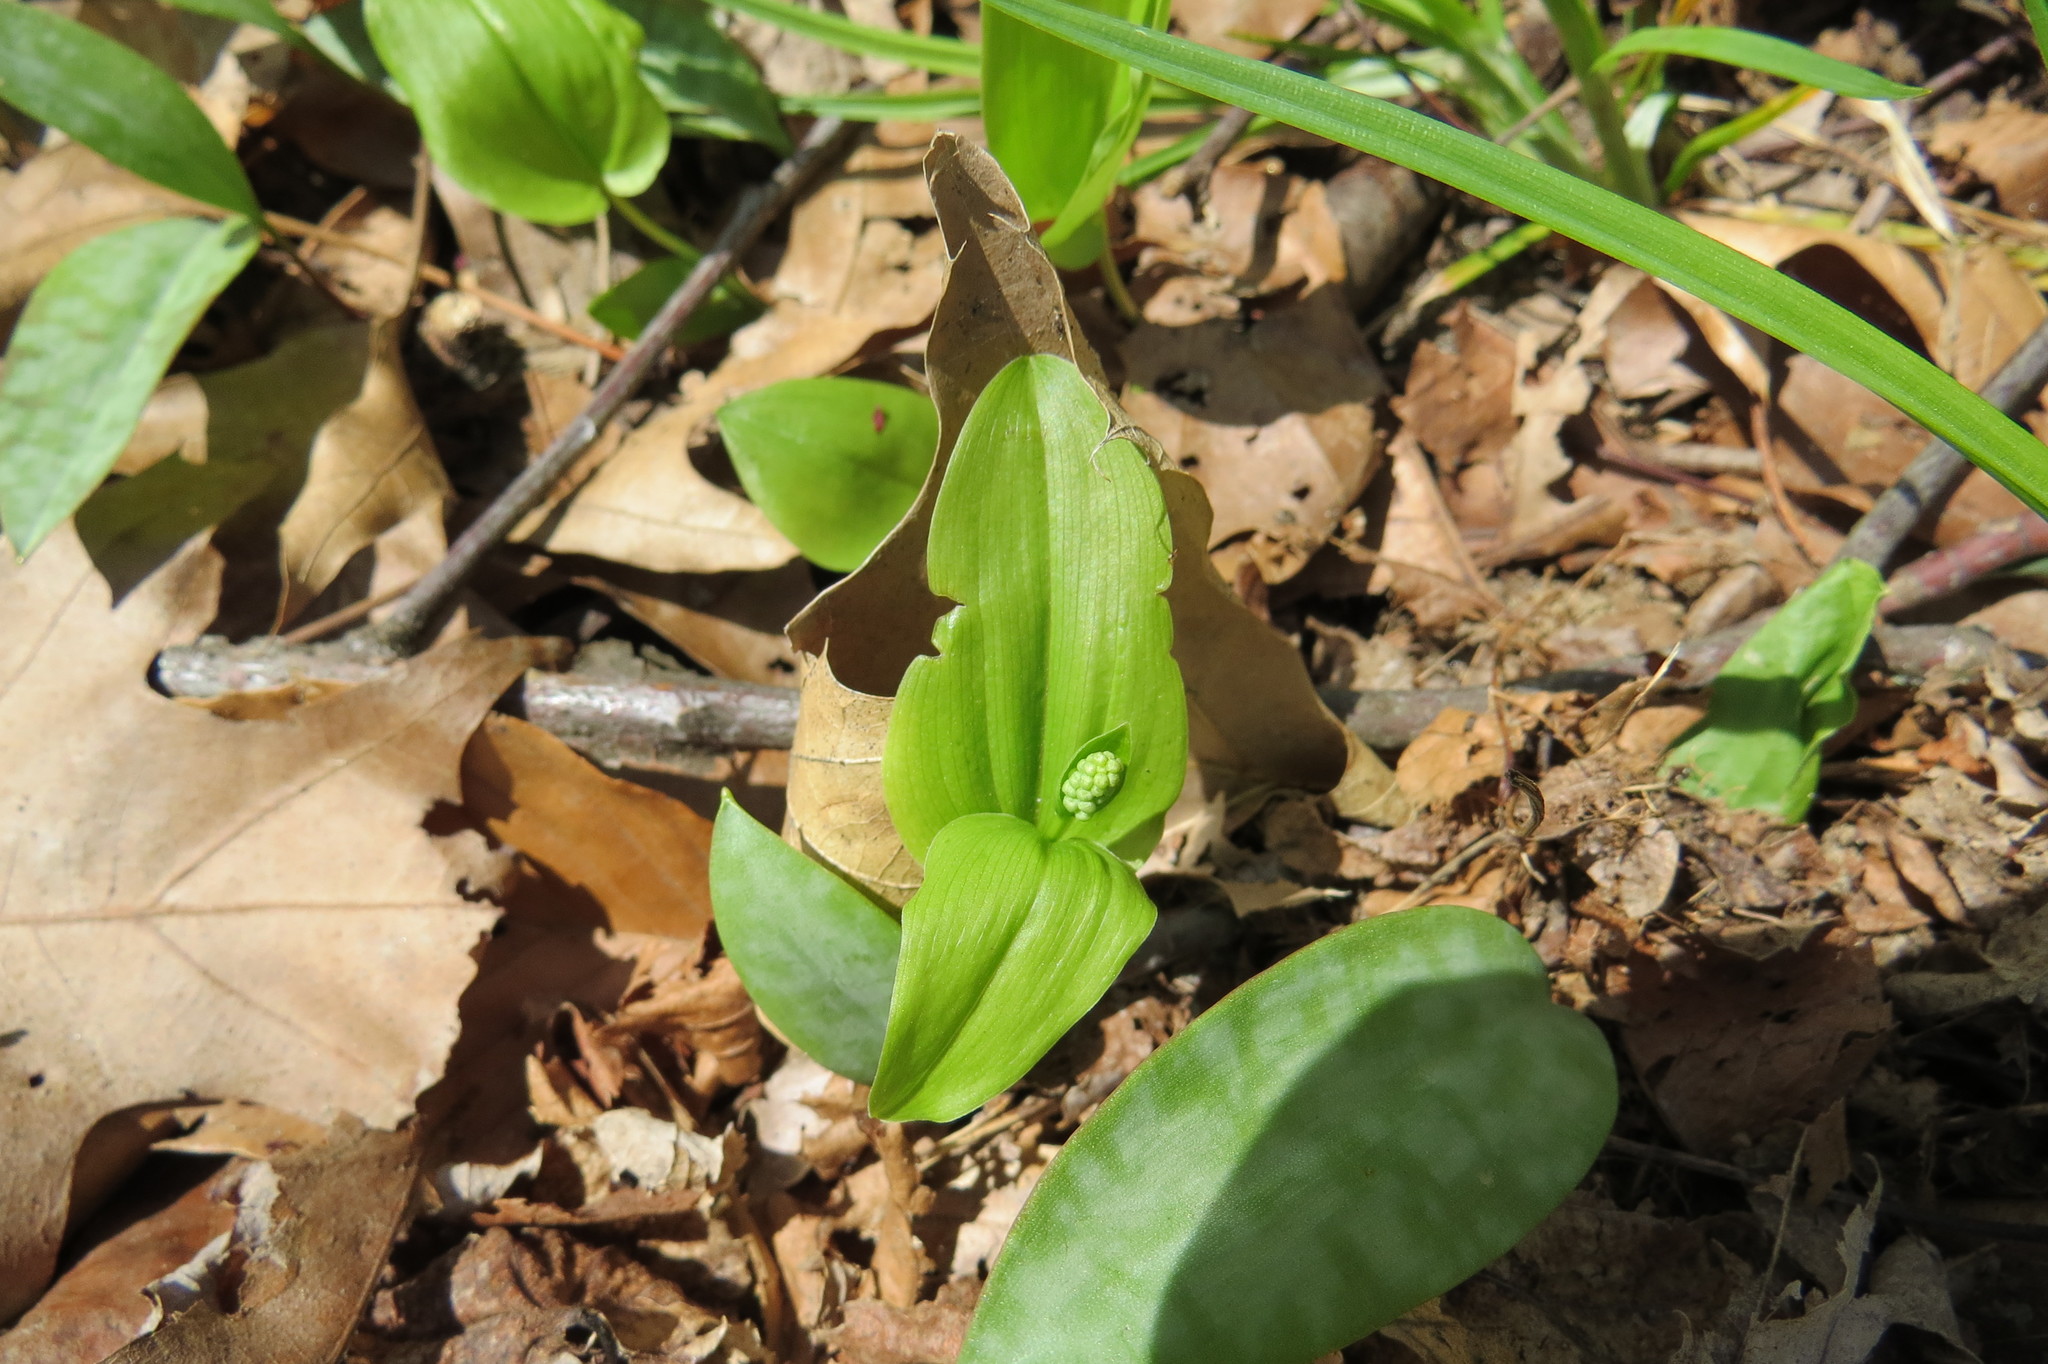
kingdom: Plantae
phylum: Tracheophyta
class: Liliopsida
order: Asparagales
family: Asparagaceae
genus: Maianthemum
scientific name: Maianthemum canadense
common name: False lily-of-the-valley
